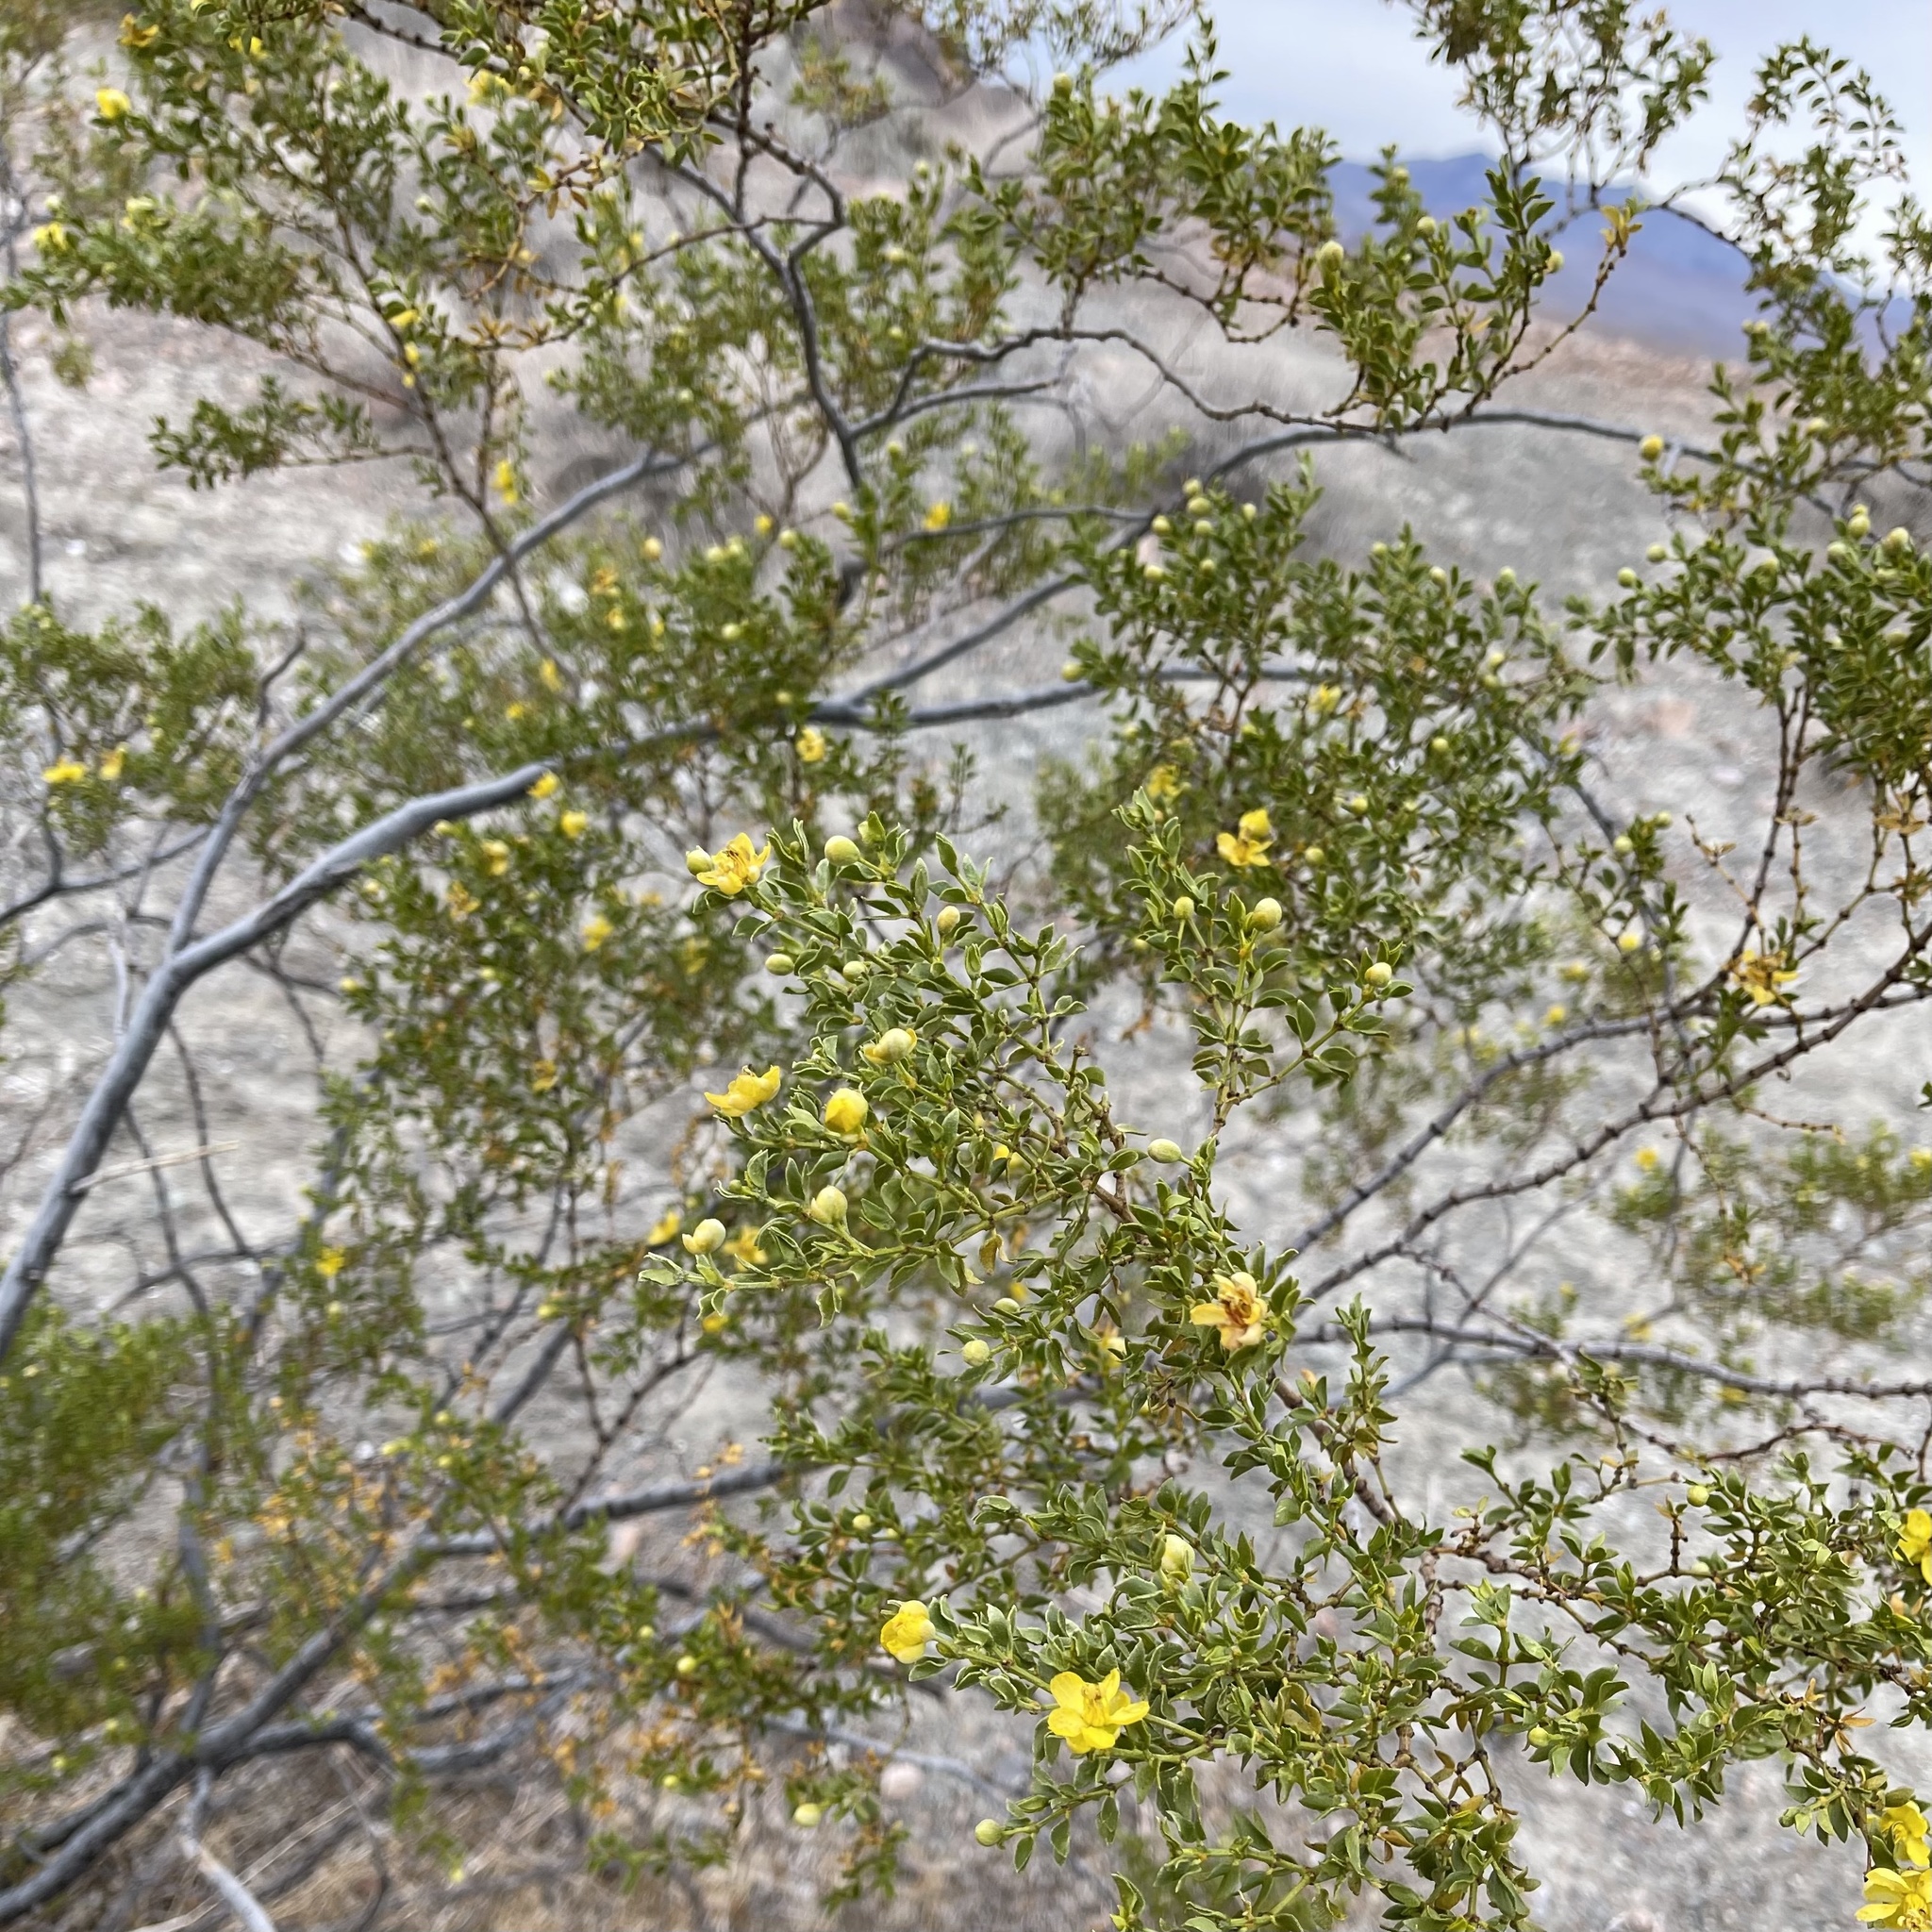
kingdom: Plantae
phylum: Tracheophyta
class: Magnoliopsida
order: Zygophyllales
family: Zygophyllaceae
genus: Larrea
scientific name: Larrea tridentata
